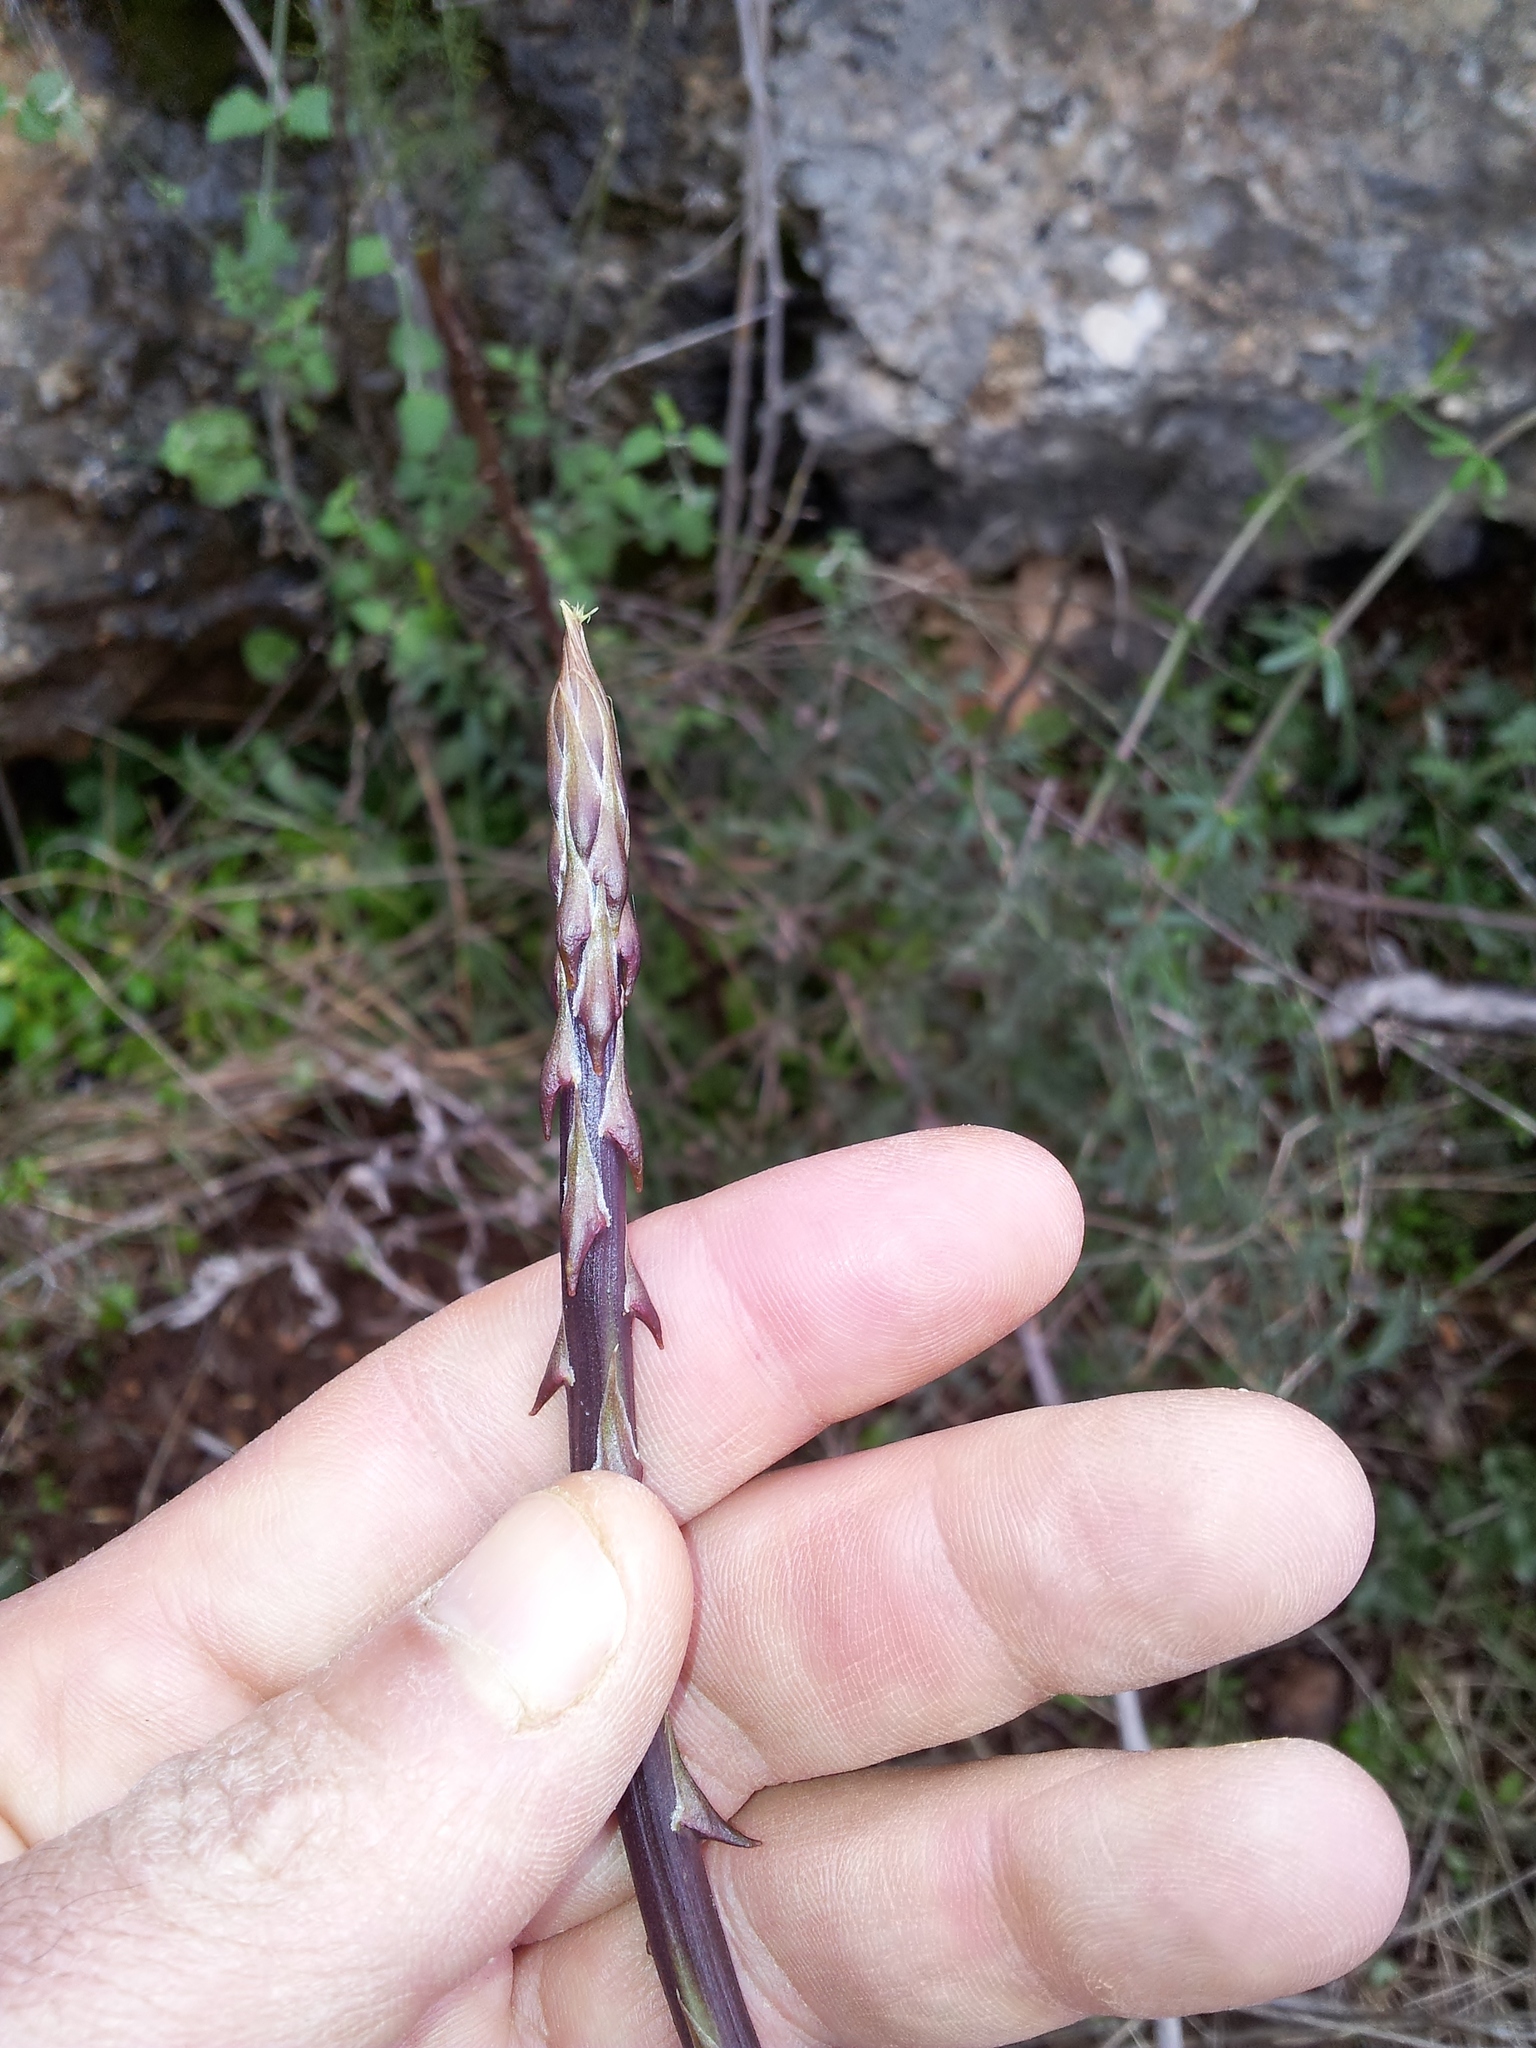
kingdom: Plantae
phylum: Tracheophyta
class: Liliopsida
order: Asparagales
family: Asparagaceae
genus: Asparagus
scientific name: Asparagus aphyllus
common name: Mediterranean asparagus
